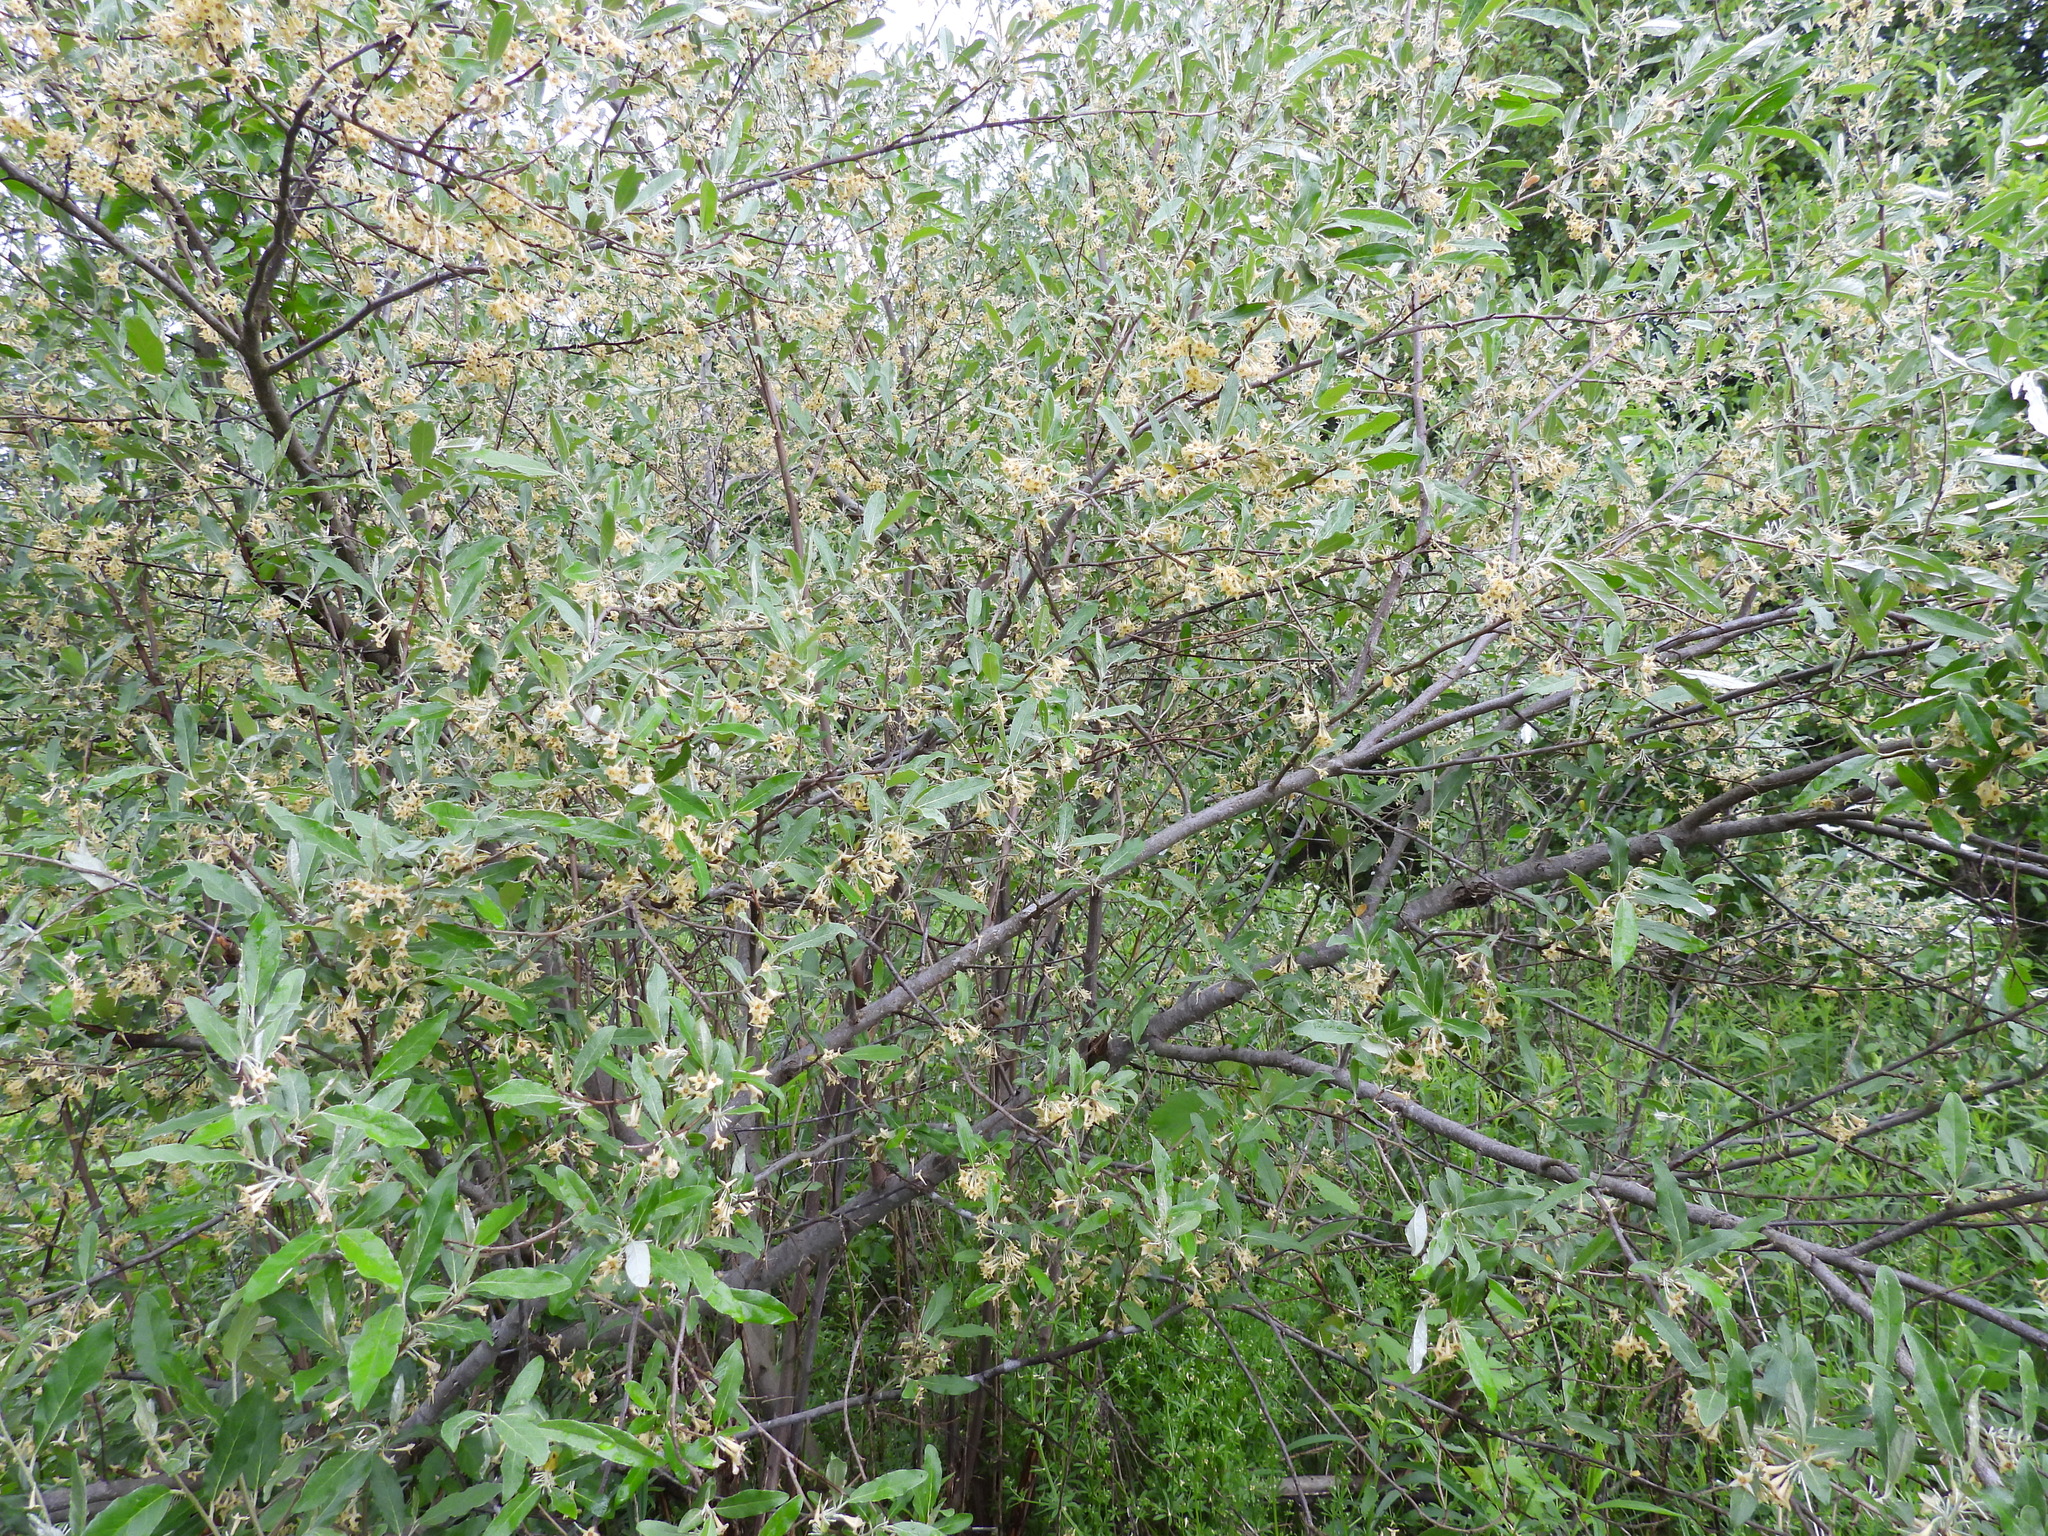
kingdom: Plantae
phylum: Tracheophyta
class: Magnoliopsida
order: Rosales
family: Elaeagnaceae
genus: Elaeagnus
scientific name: Elaeagnus umbellata
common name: Autumn olive
